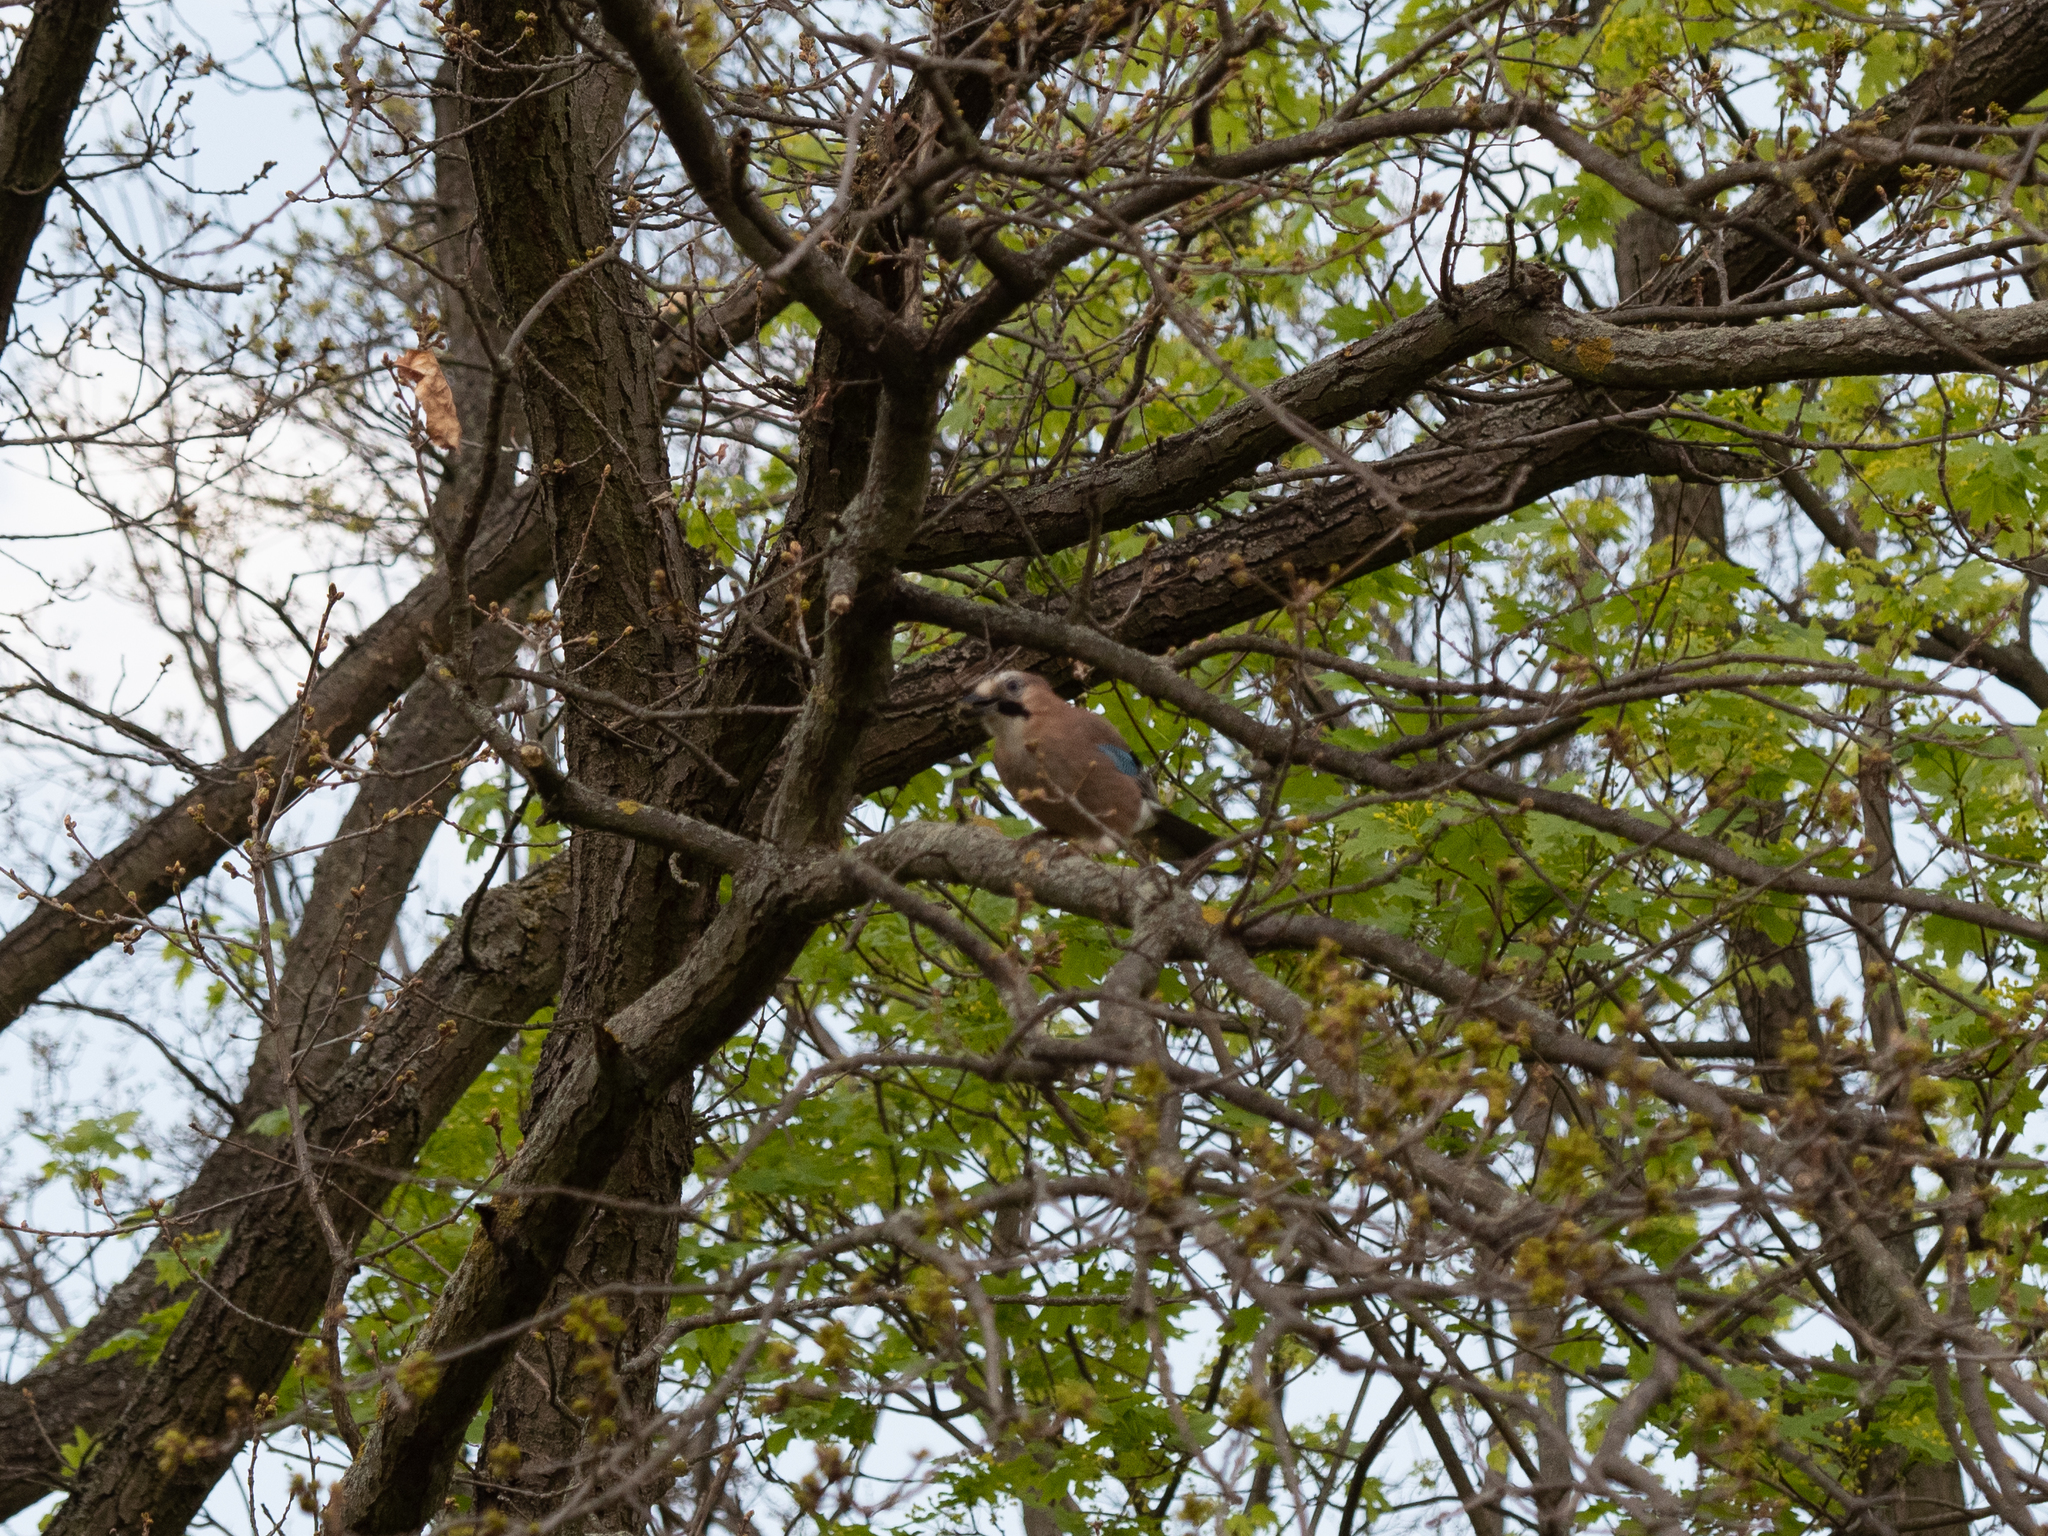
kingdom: Animalia
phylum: Chordata
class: Aves
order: Passeriformes
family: Corvidae
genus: Garrulus
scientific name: Garrulus glandarius
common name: Eurasian jay
